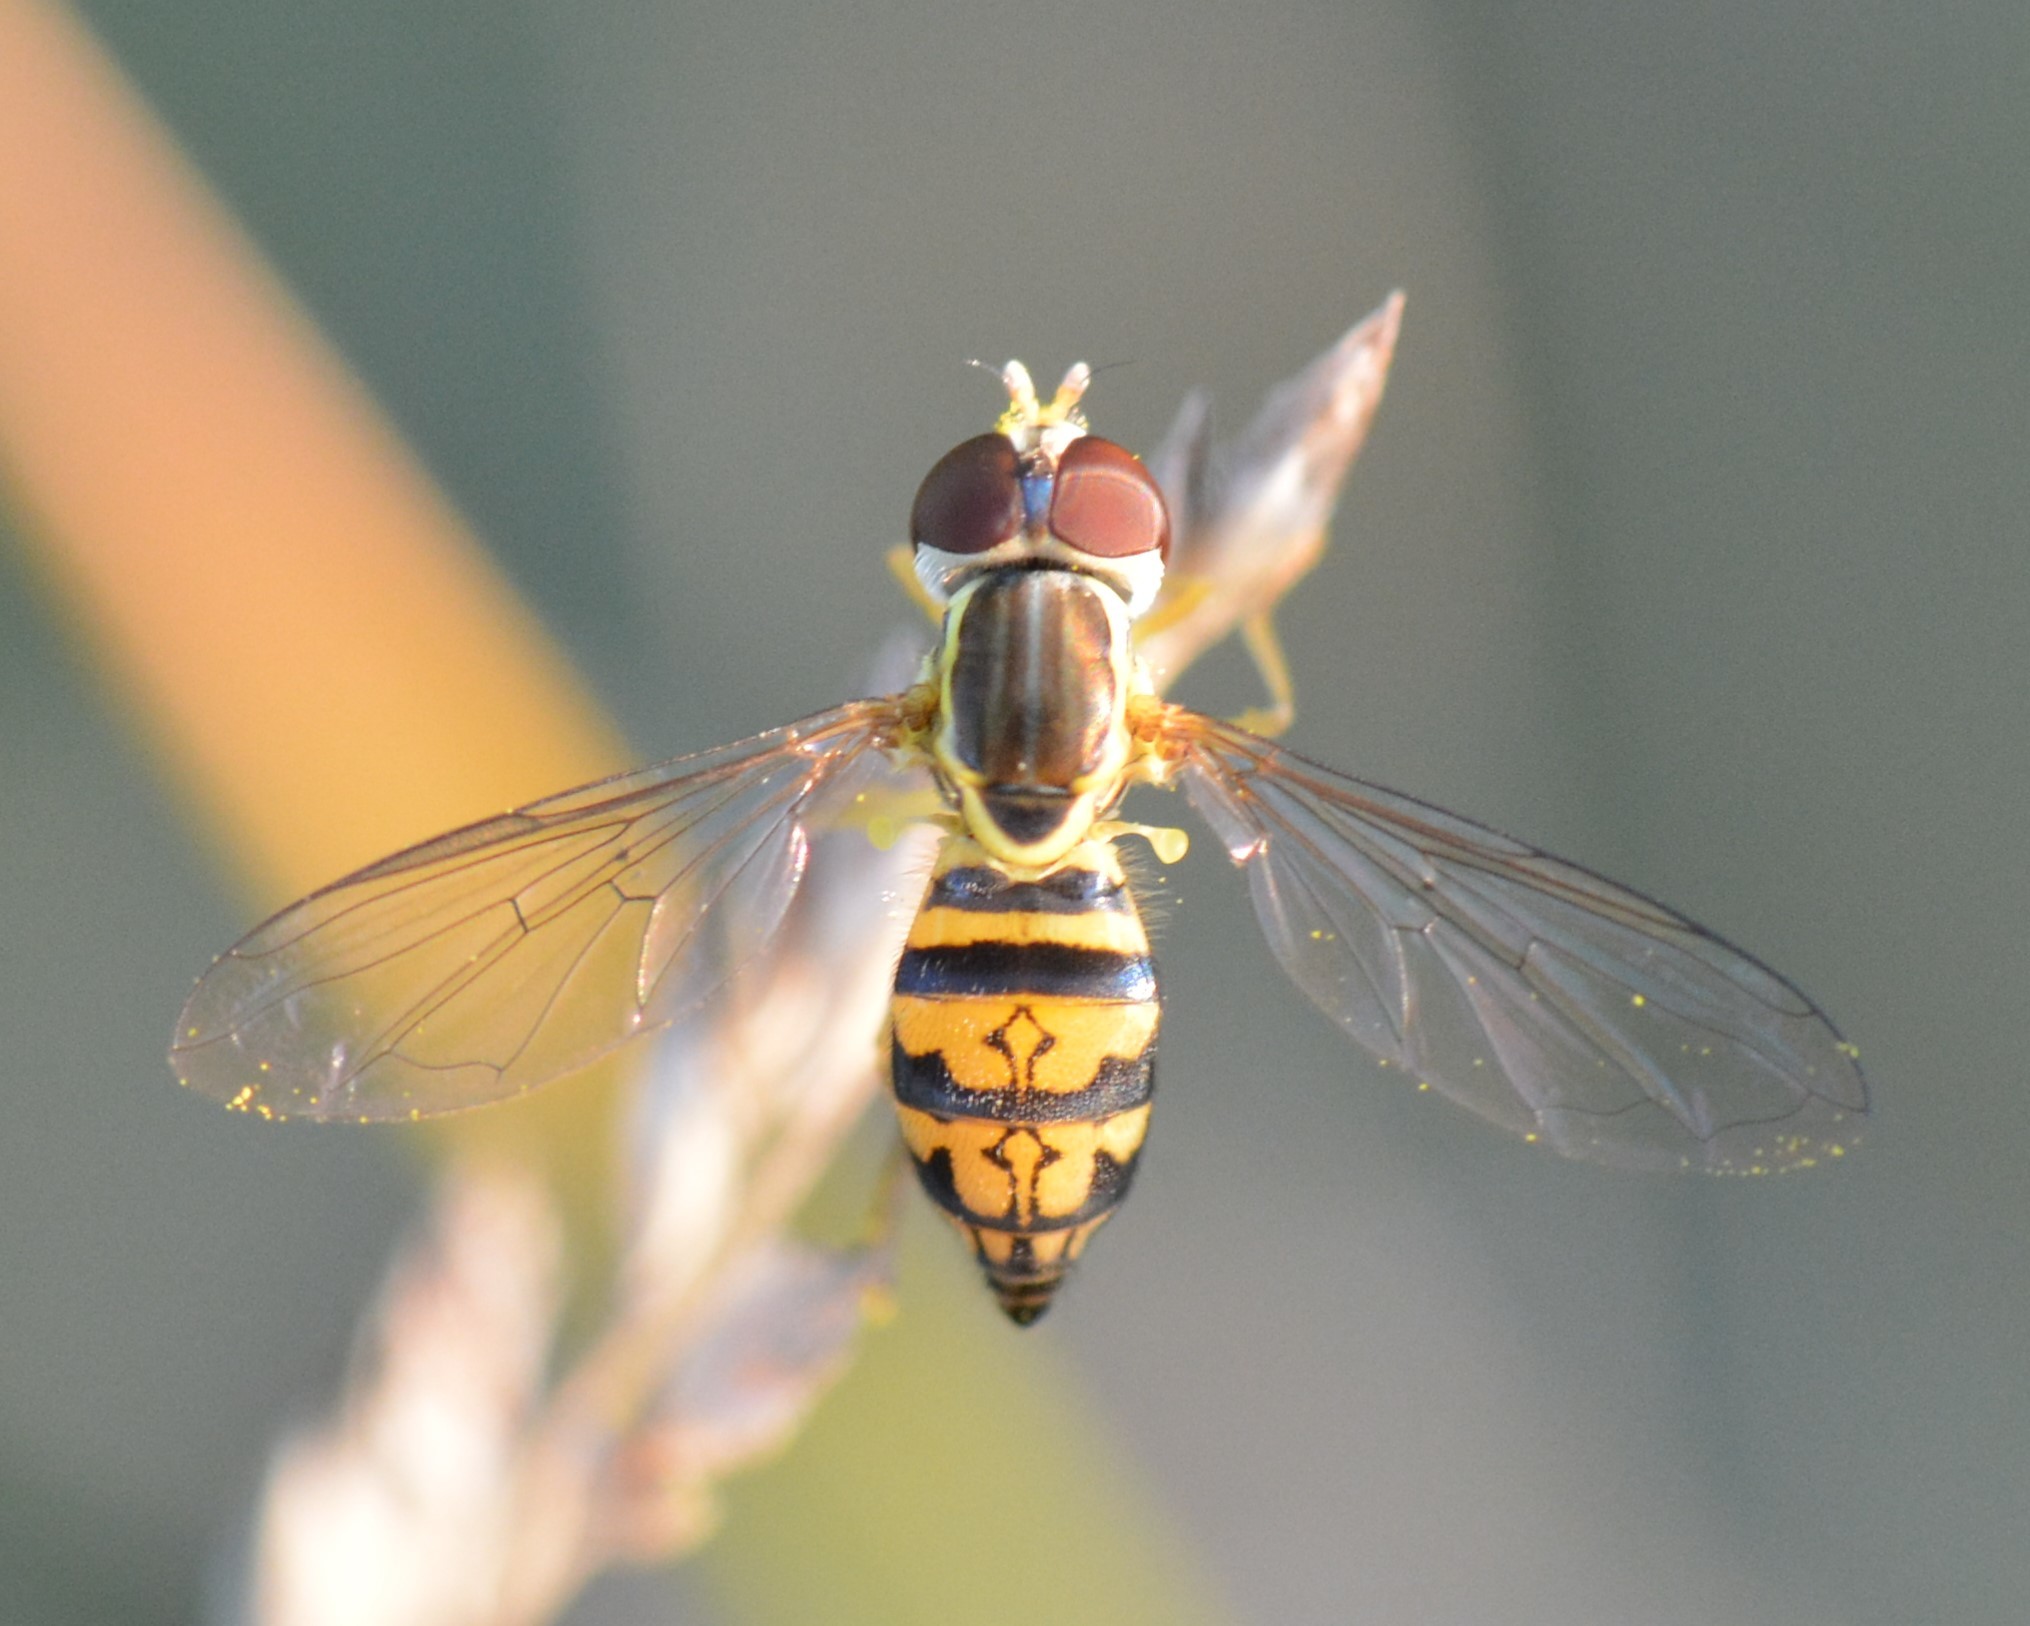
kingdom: Animalia
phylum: Arthropoda
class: Insecta
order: Diptera
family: Syrphidae
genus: Toxomerus
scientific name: Toxomerus geminatus
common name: Eastern calligrapher
